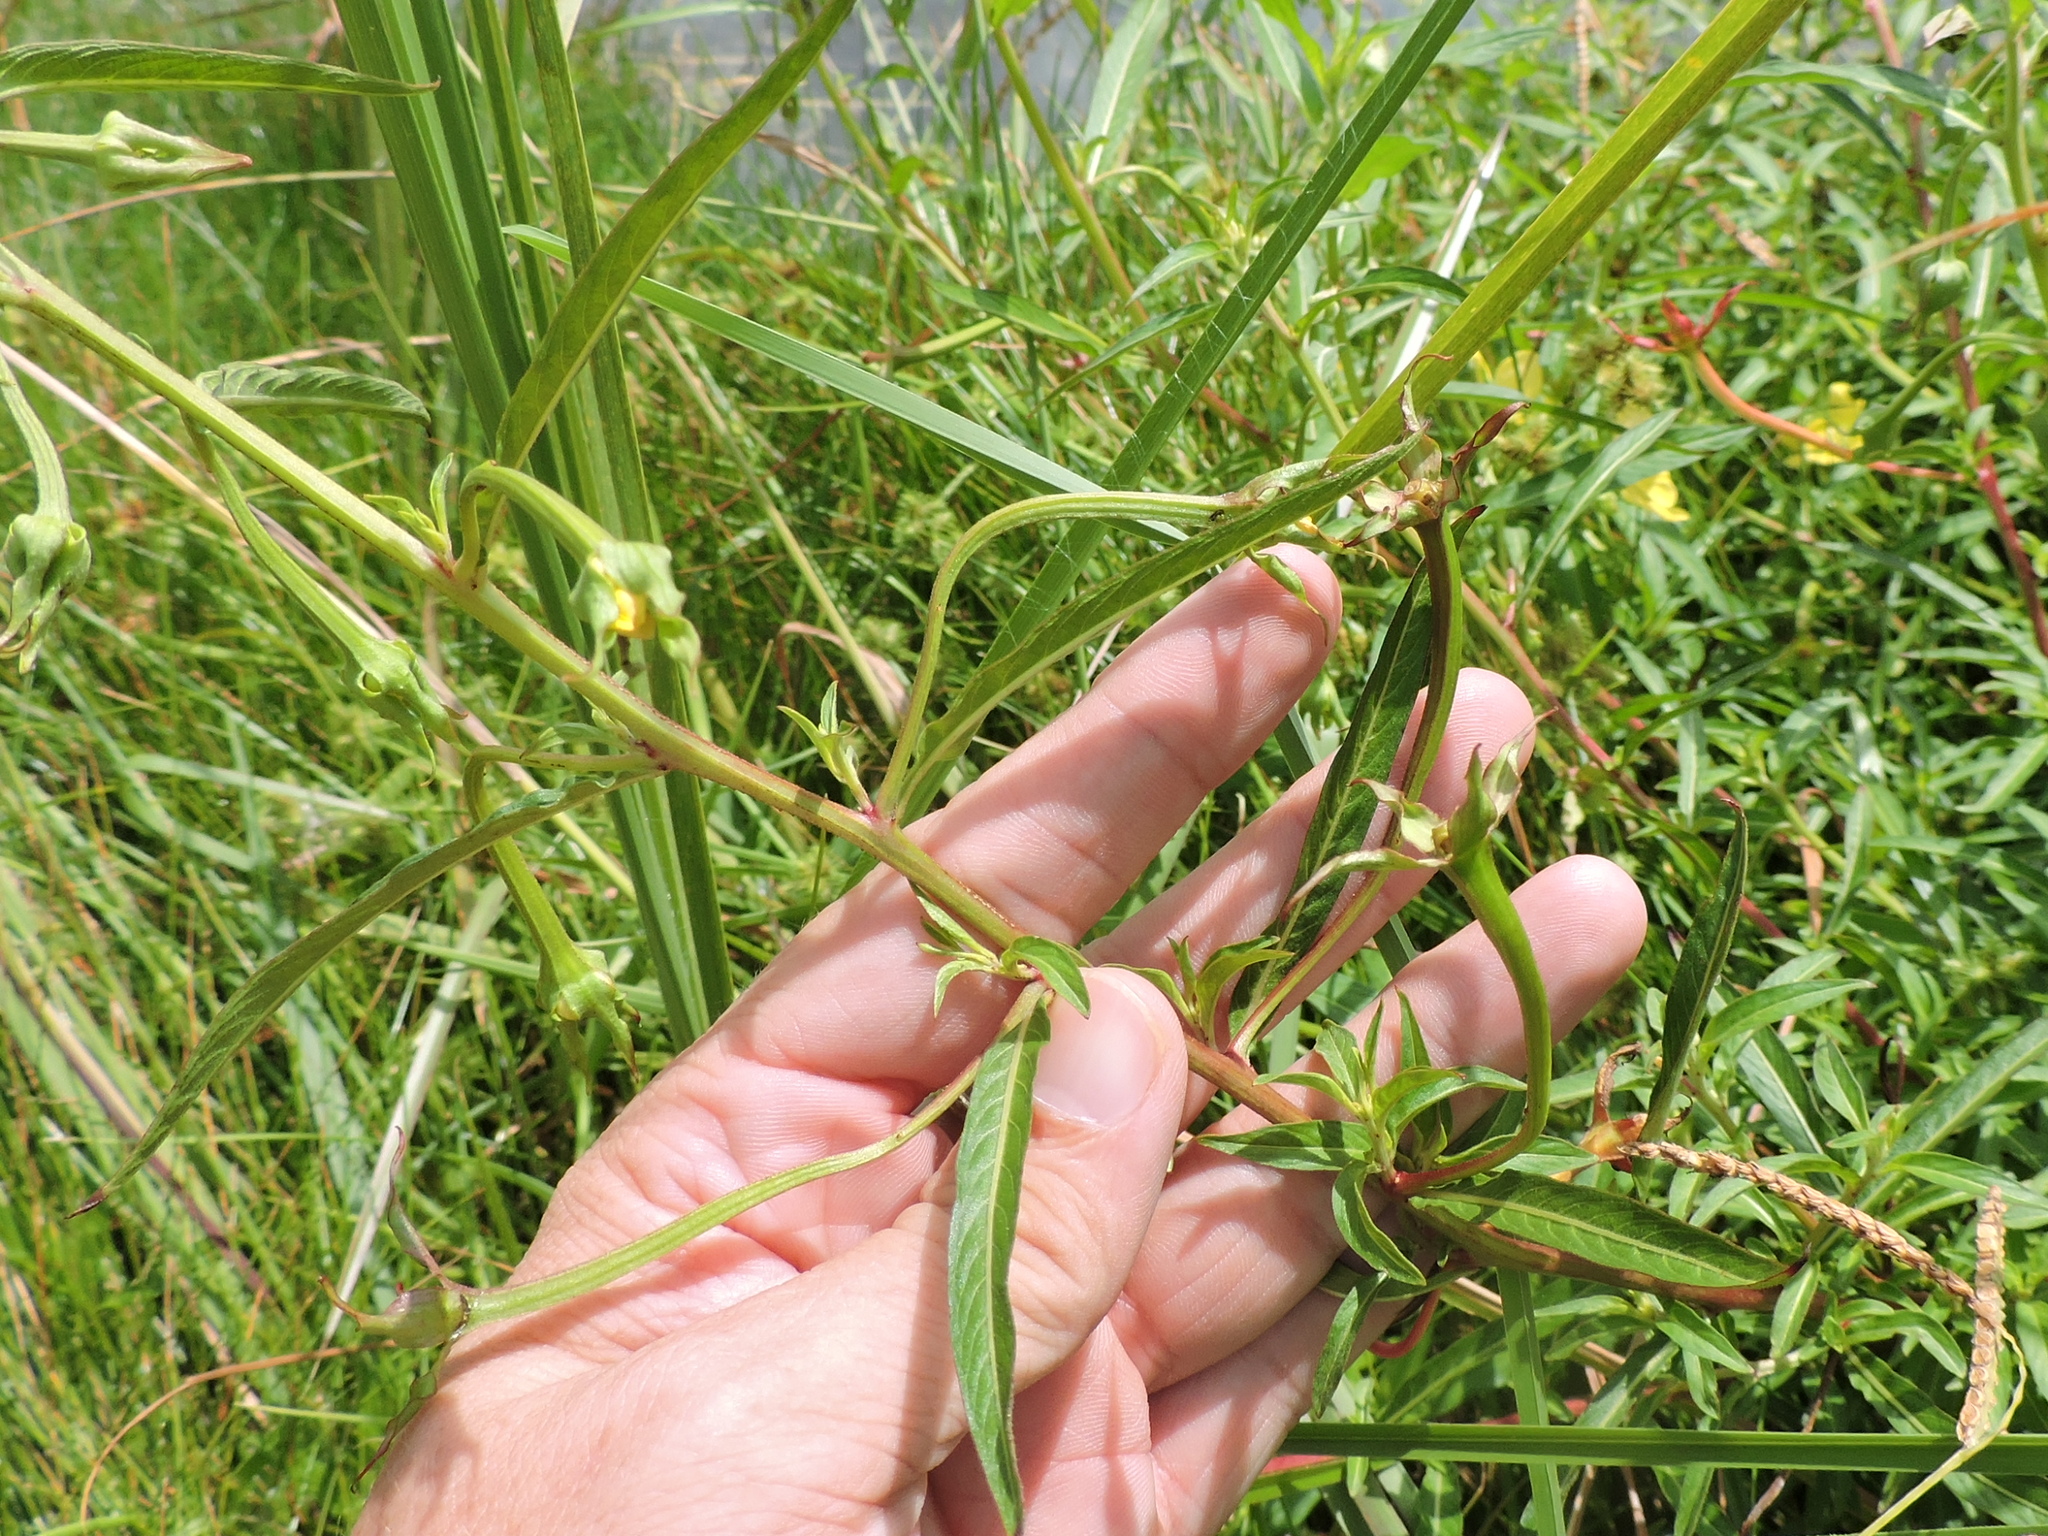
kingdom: Plantae
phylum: Tracheophyta
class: Magnoliopsida
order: Myrtales
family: Onagraceae
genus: Ludwigia
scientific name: Ludwigia octovalvis
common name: Water-primrose
